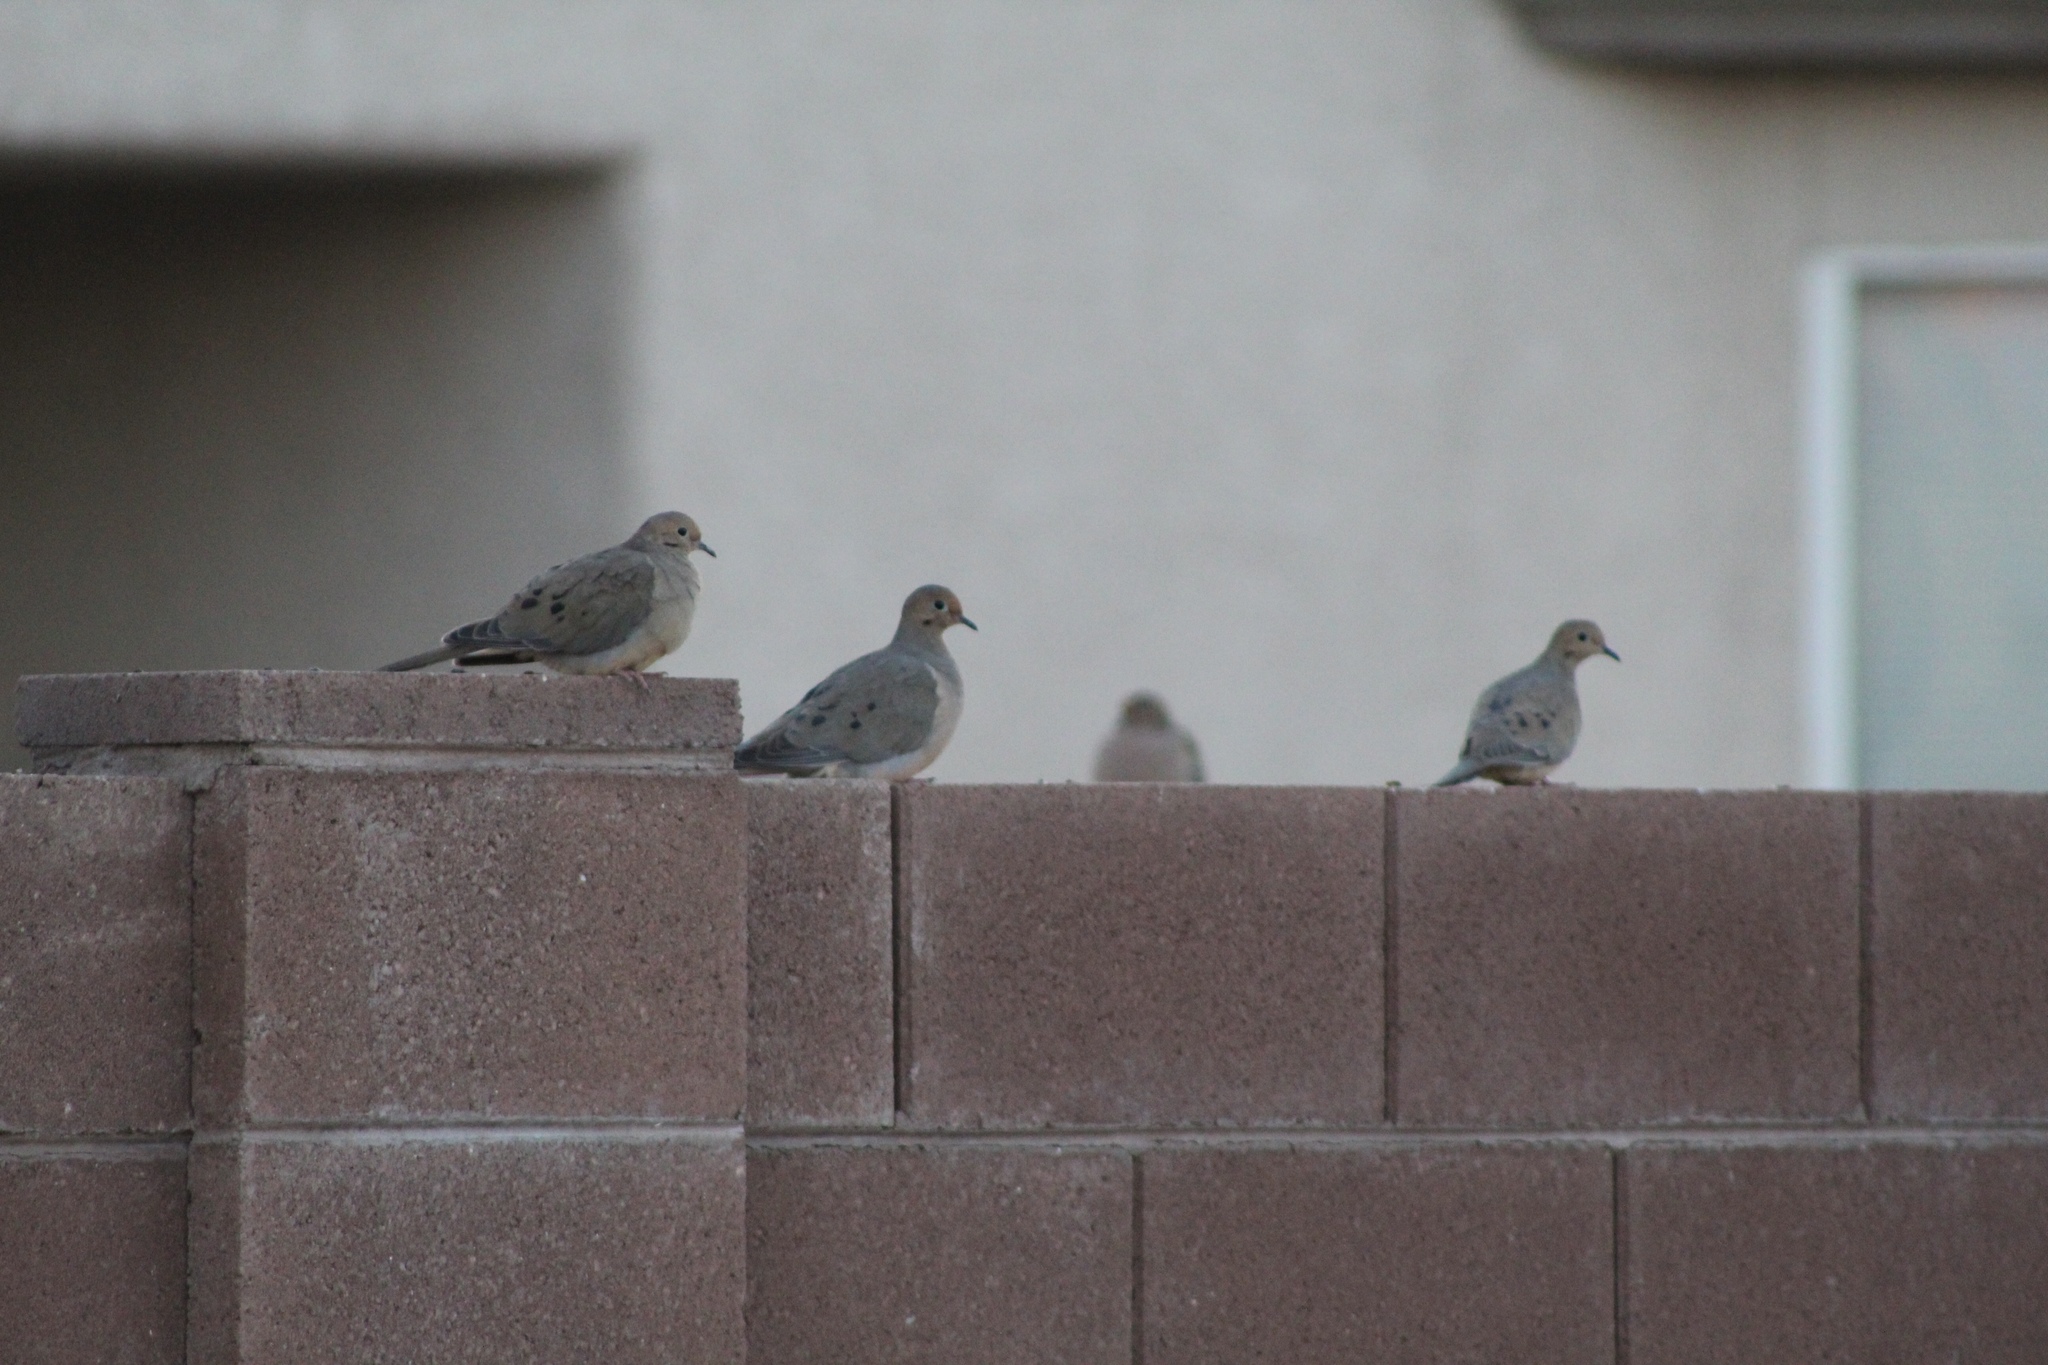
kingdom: Animalia
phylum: Chordata
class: Aves
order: Columbiformes
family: Columbidae
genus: Zenaida
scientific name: Zenaida macroura
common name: Mourning dove
